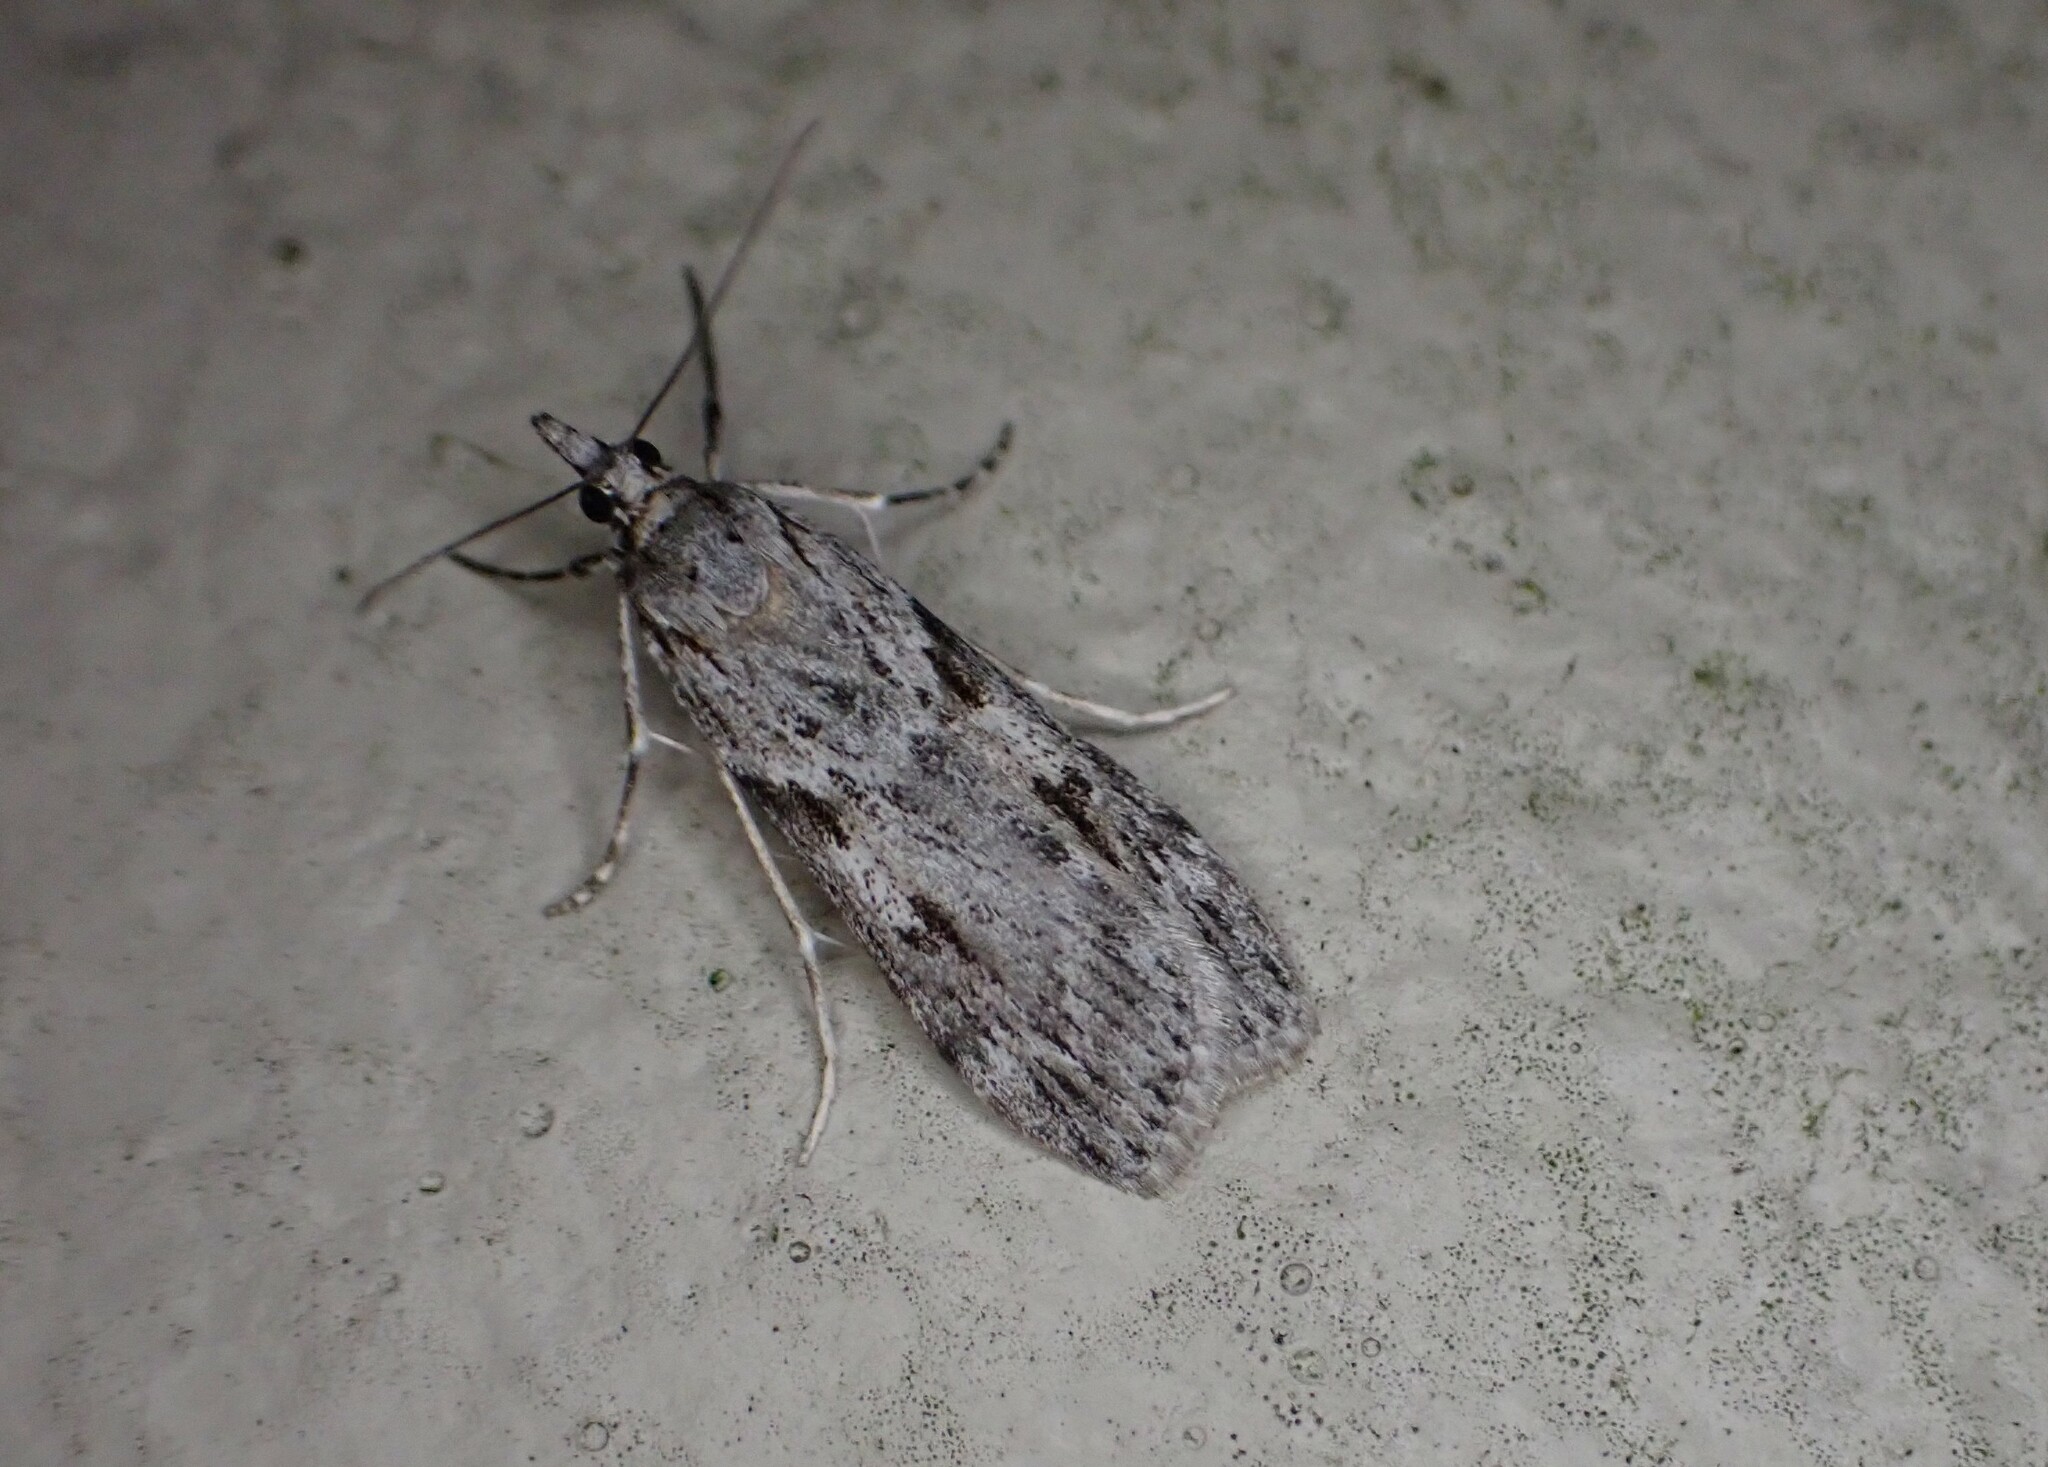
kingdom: Animalia
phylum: Arthropoda
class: Insecta
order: Lepidoptera
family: Crambidae
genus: Scoparia
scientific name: Scoparia halopis
